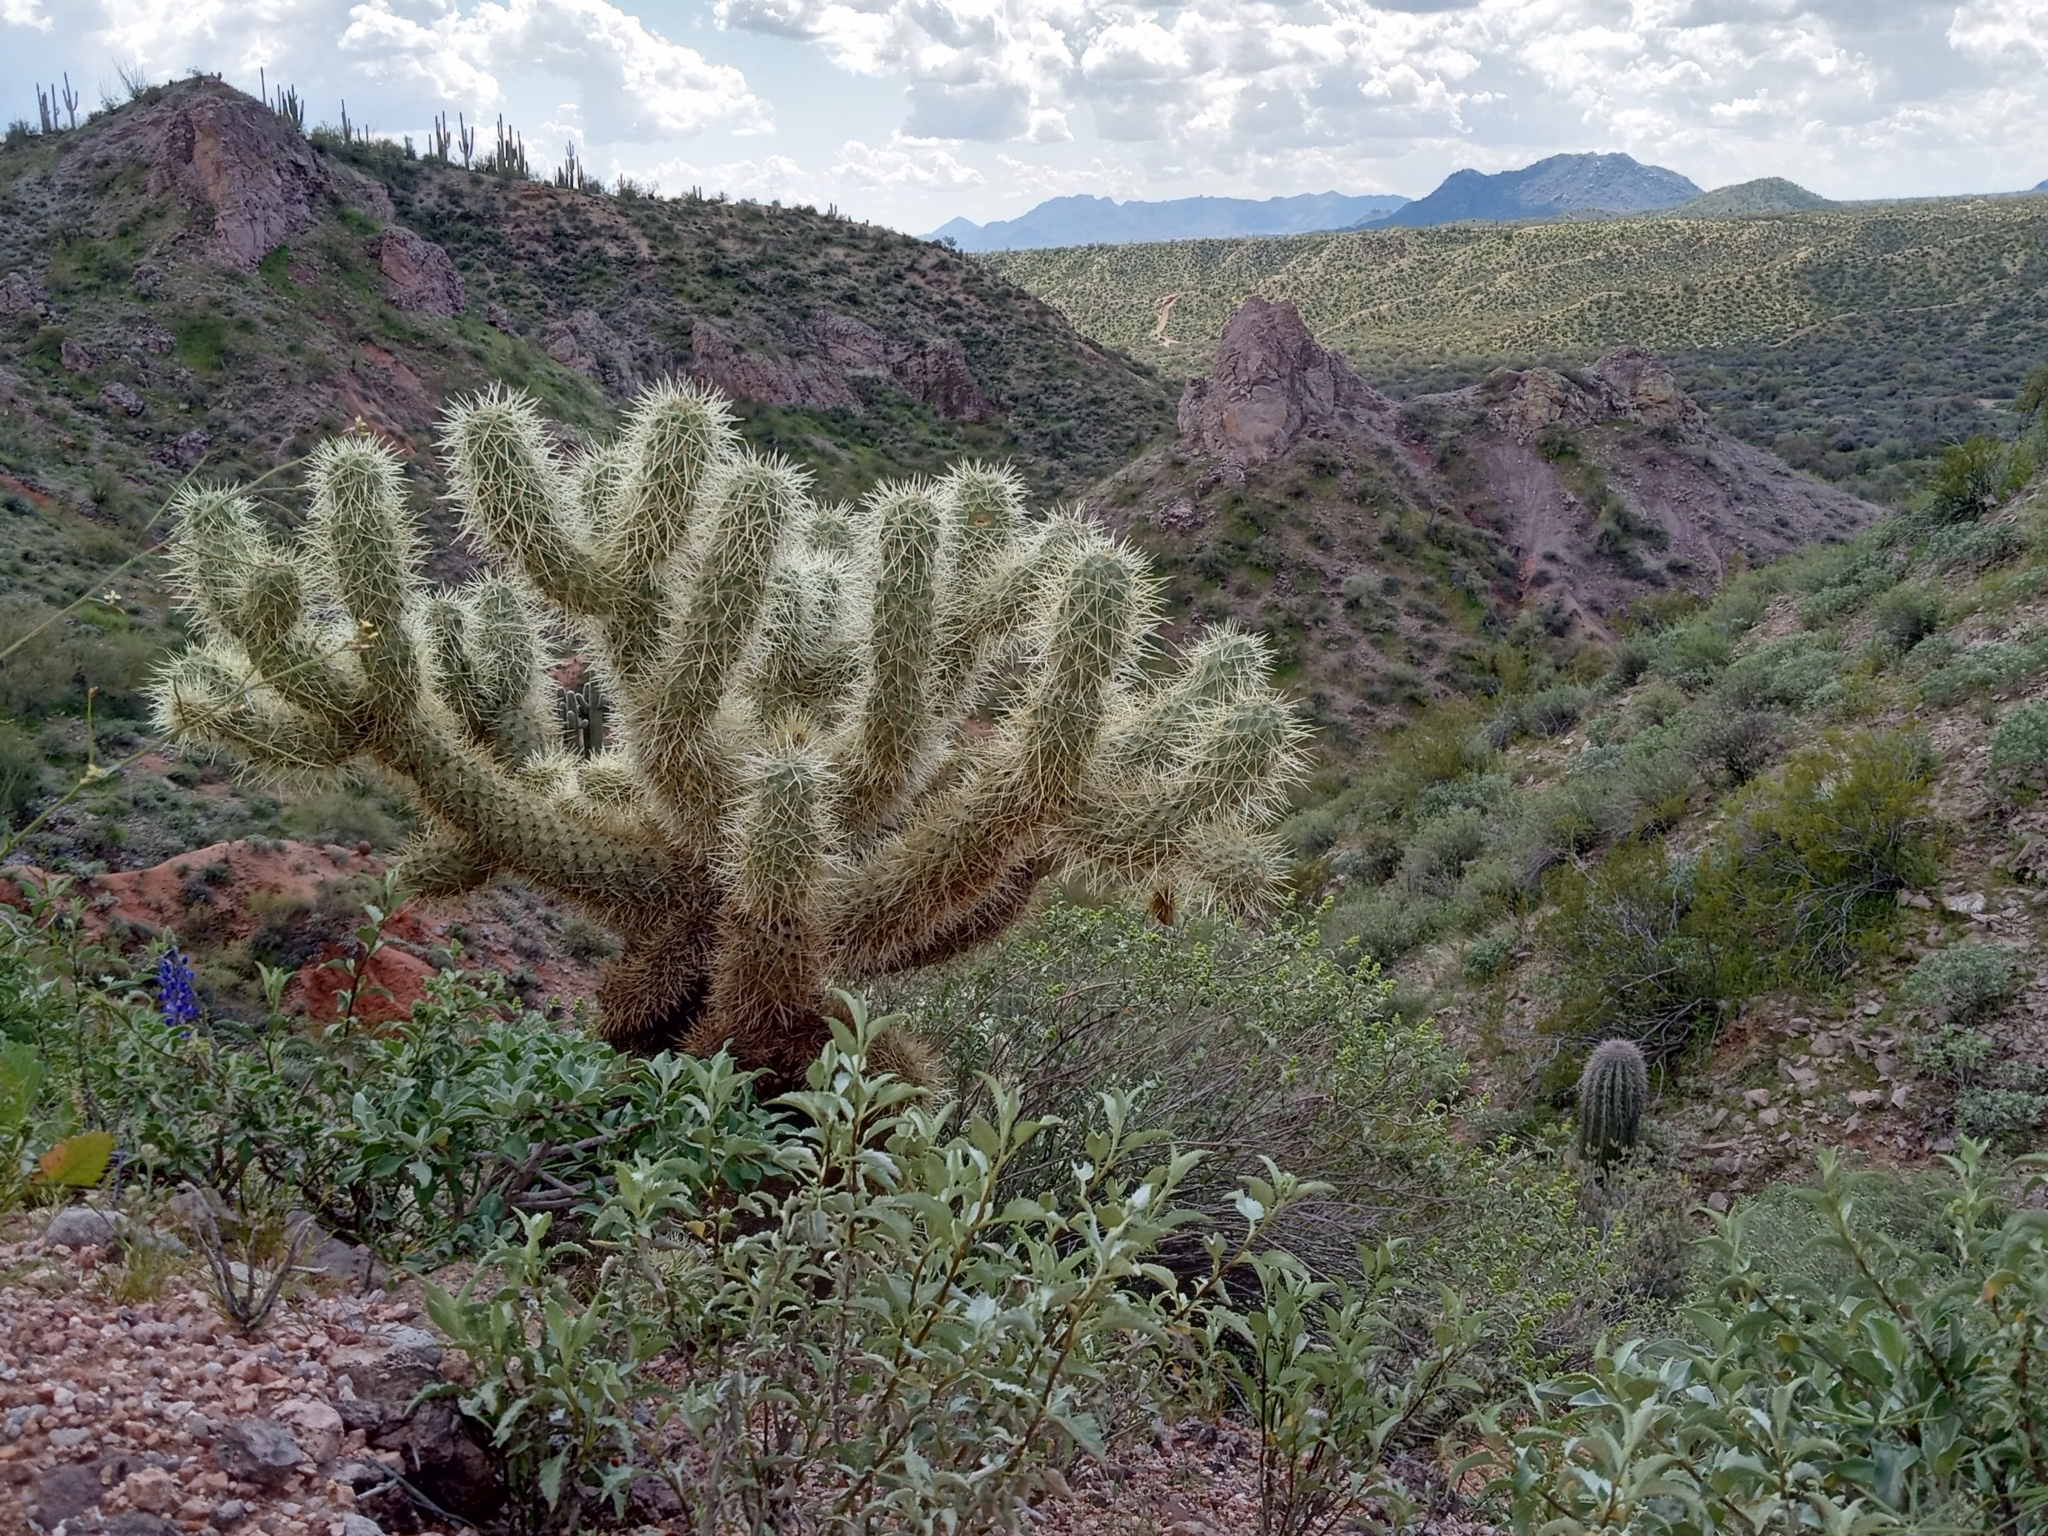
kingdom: Plantae
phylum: Tracheophyta
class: Magnoliopsida
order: Caryophyllales
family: Cactaceae
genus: Cylindropuntia
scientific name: Cylindropuntia fosbergii
